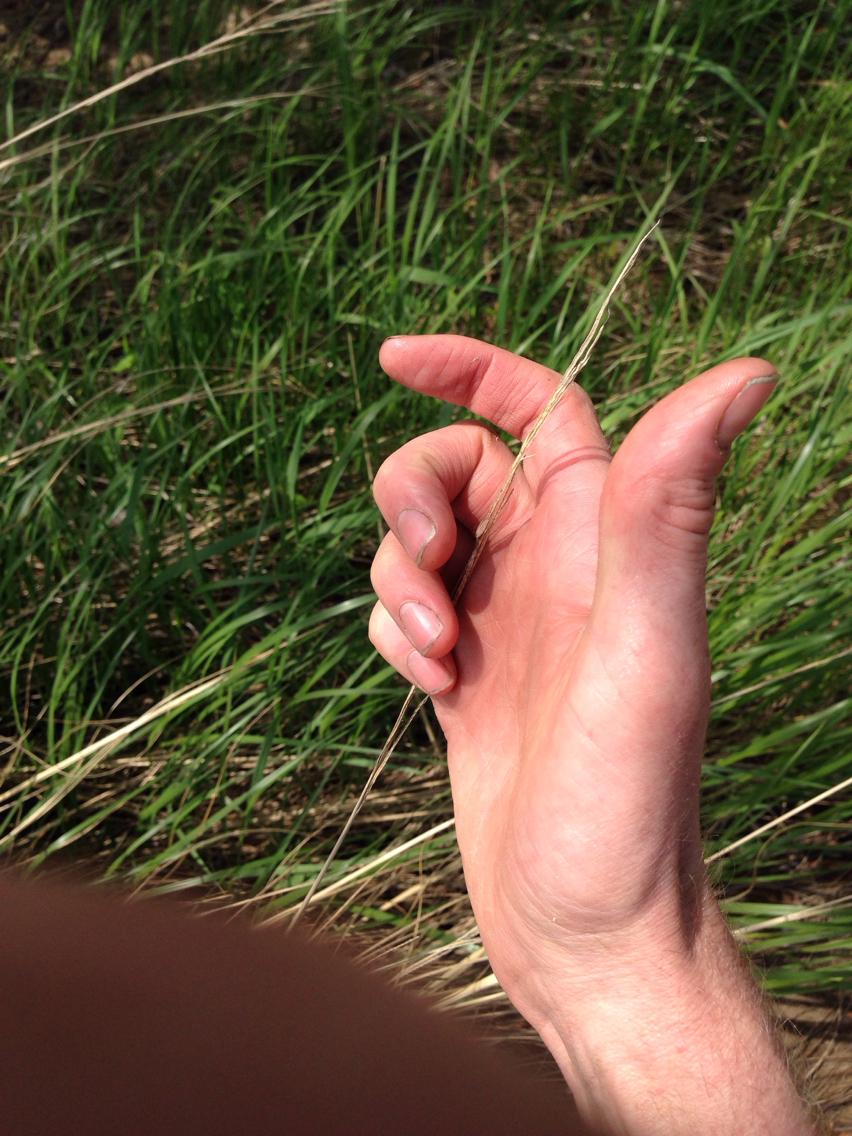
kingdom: Plantae
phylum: Tracheophyta
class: Liliopsida
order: Poales
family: Poaceae
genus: Sporobolus
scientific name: Sporobolus michauxianus
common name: Freshwater cordgrass
